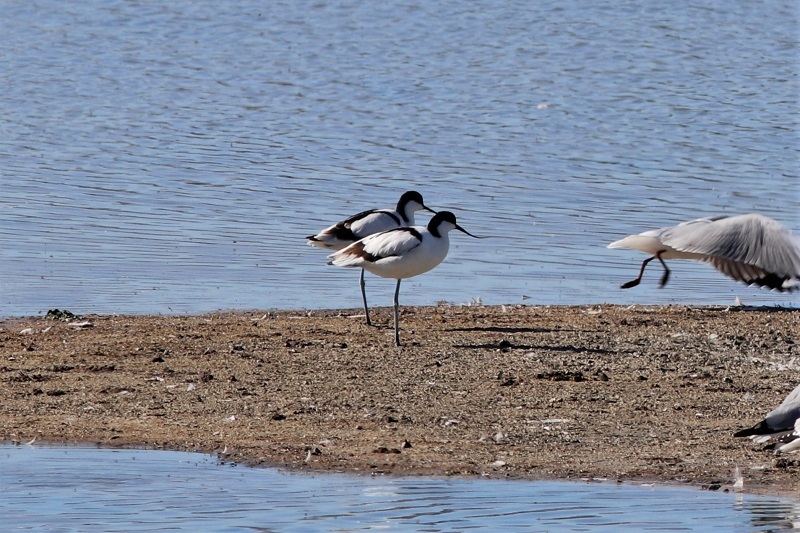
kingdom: Animalia
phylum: Chordata
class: Aves
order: Charadriiformes
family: Recurvirostridae
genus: Recurvirostra
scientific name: Recurvirostra avosetta
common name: Pied avocet
